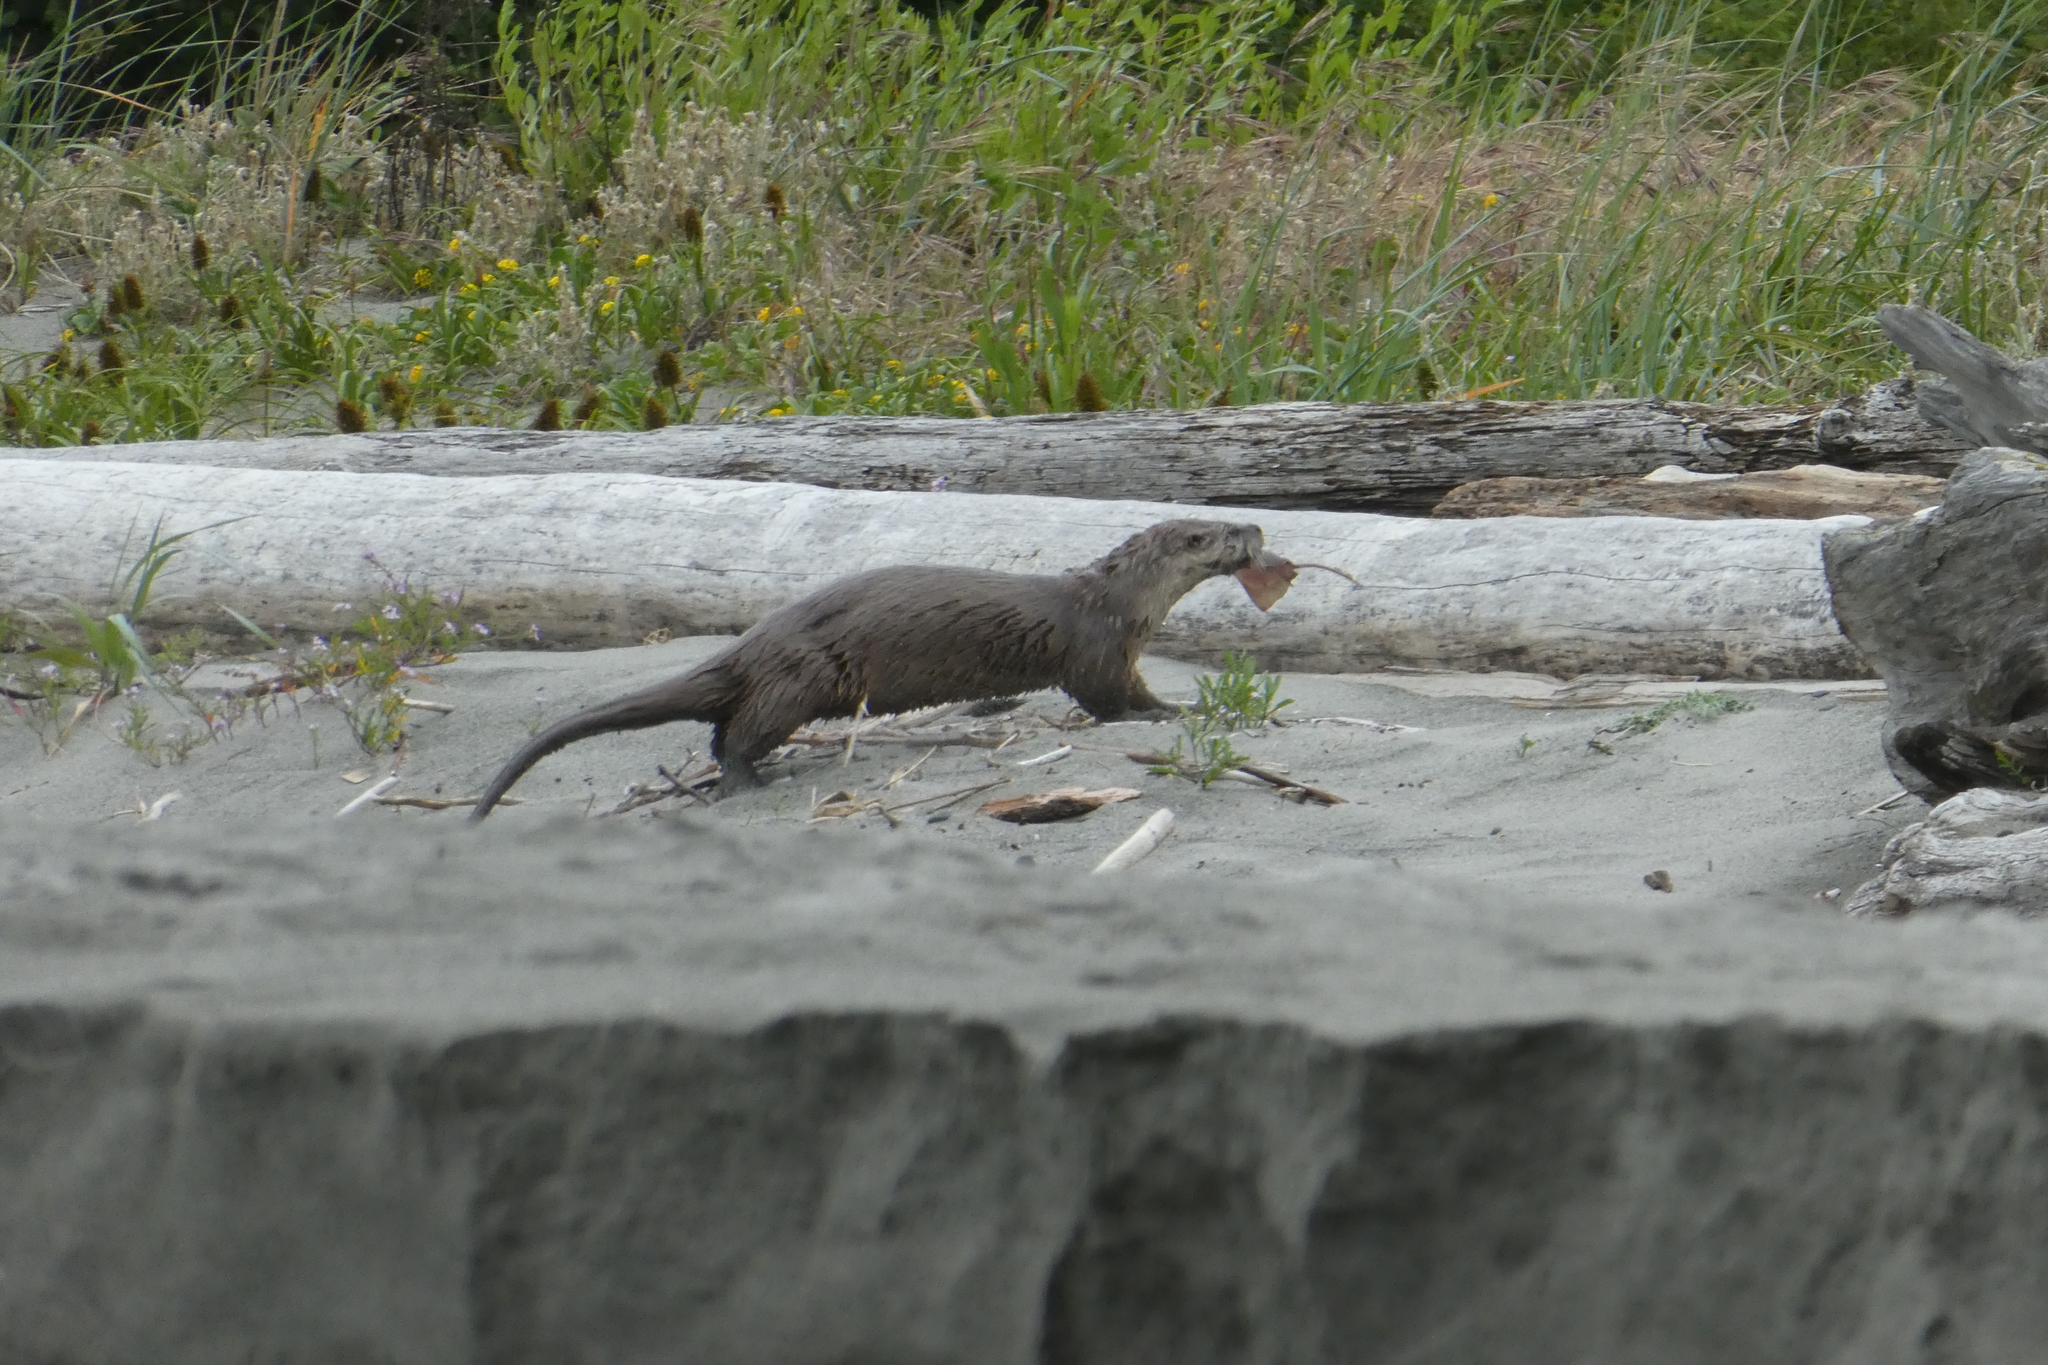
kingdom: Animalia
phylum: Chordata
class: Mammalia
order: Carnivora
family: Mustelidae
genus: Lontra
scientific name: Lontra canadensis
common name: North american river otter
